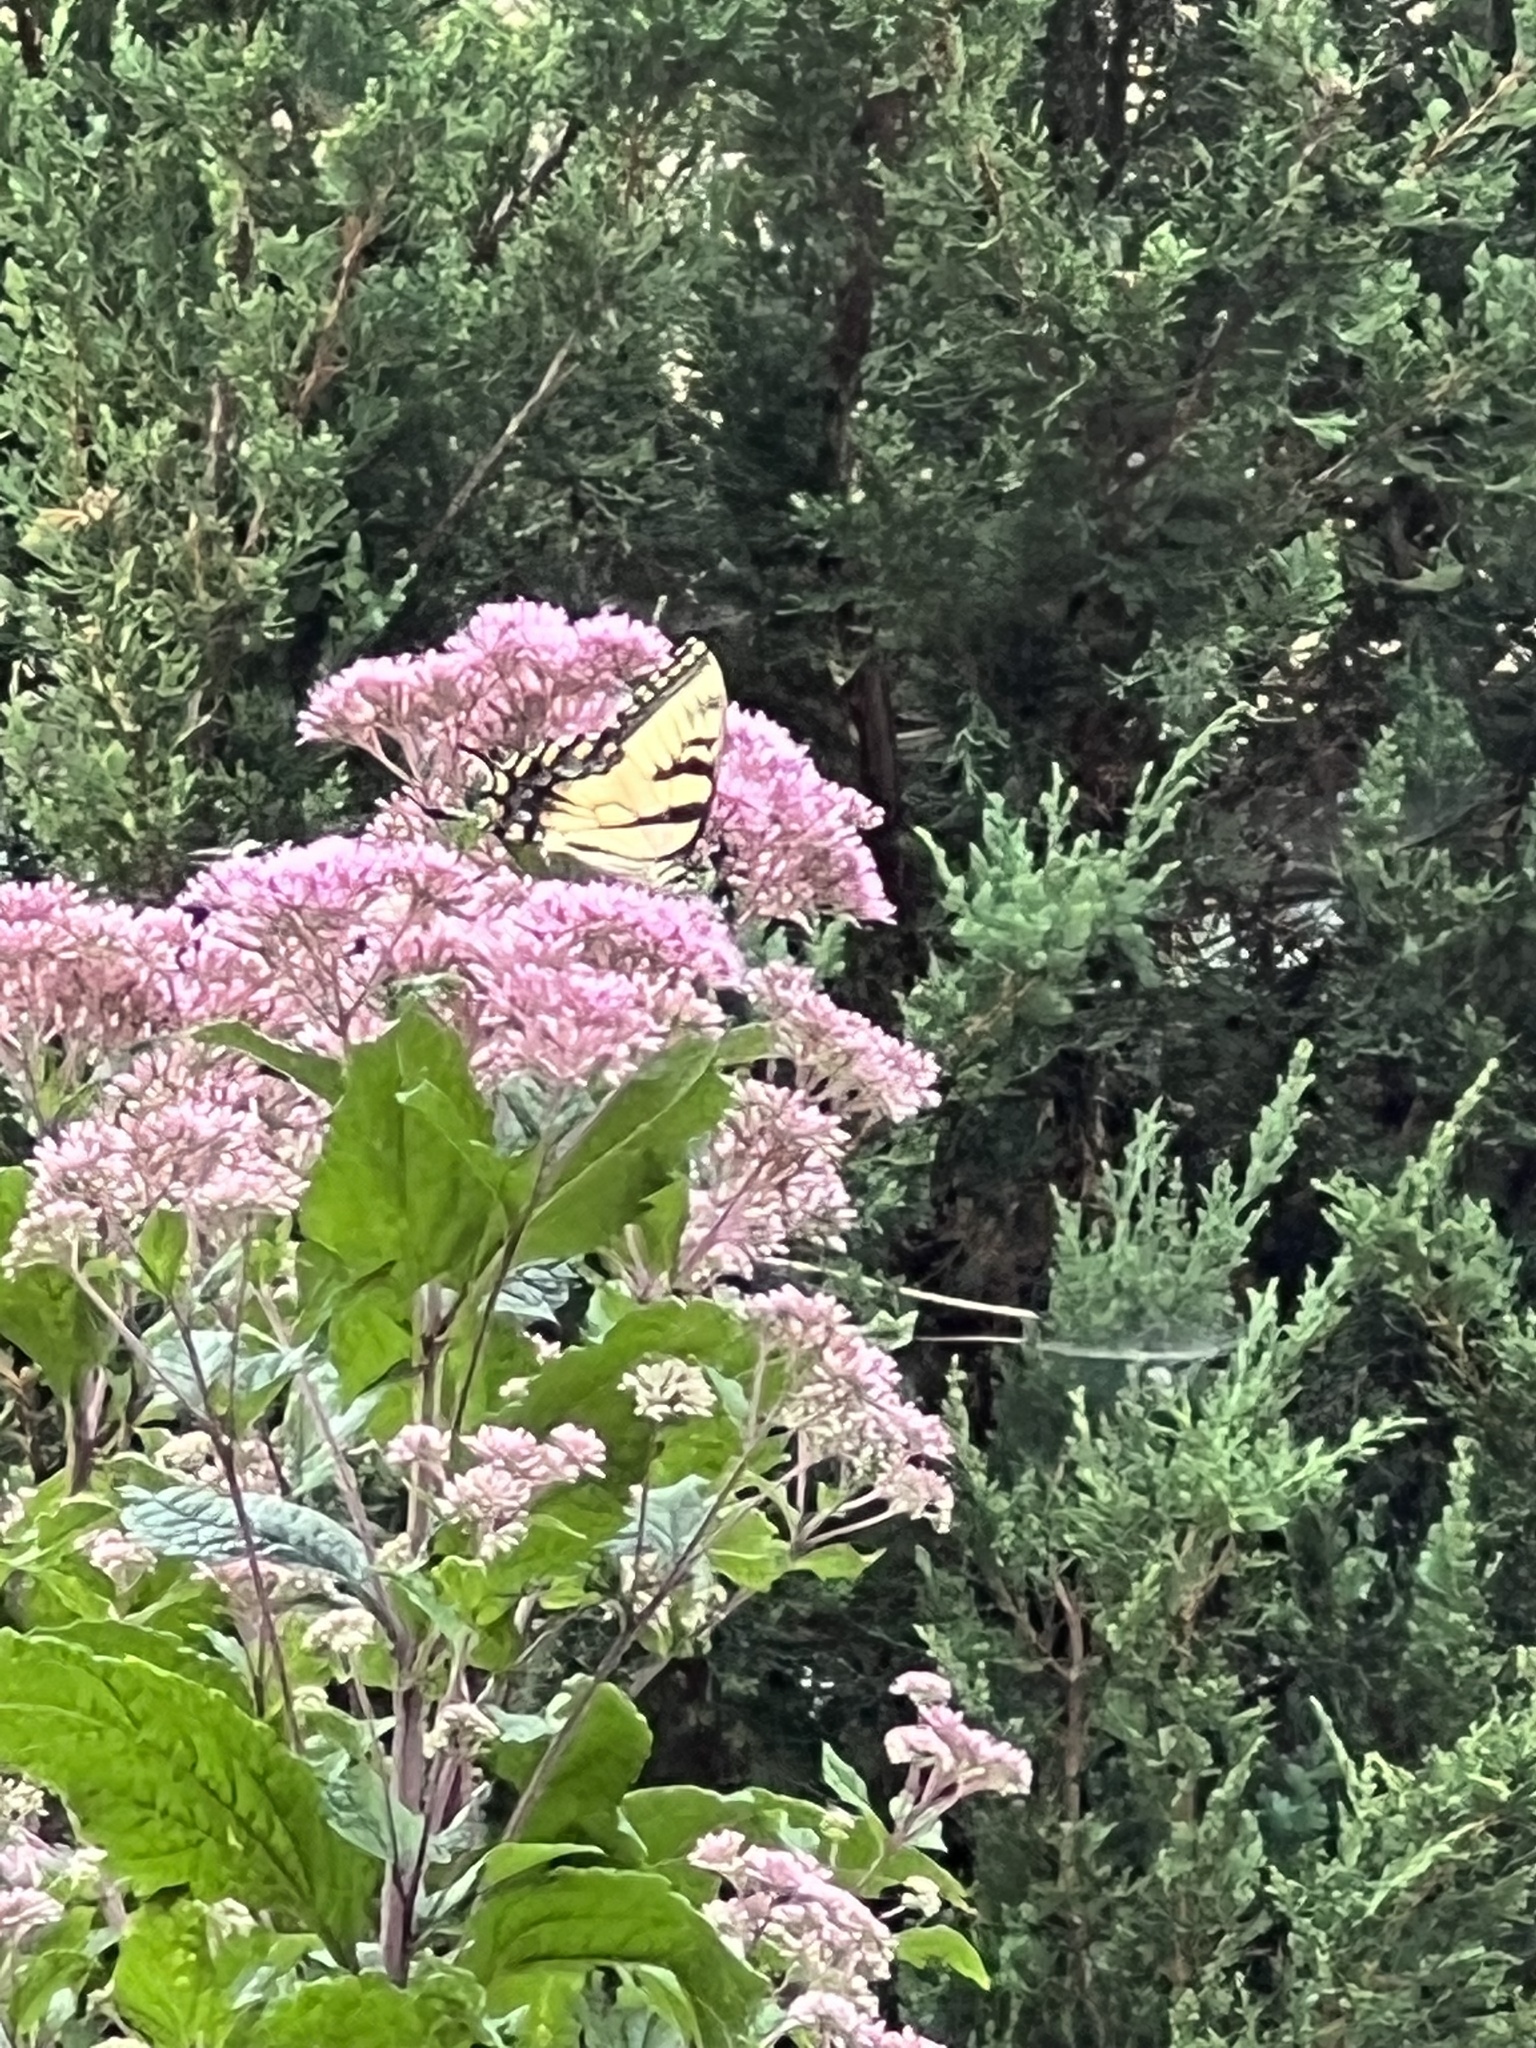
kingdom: Animalia
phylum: Arthropoda
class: Insecta
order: Lepidoptera
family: Papilionidae
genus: Papilio
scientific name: Papilio glaucus
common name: Tiger swallowtail
